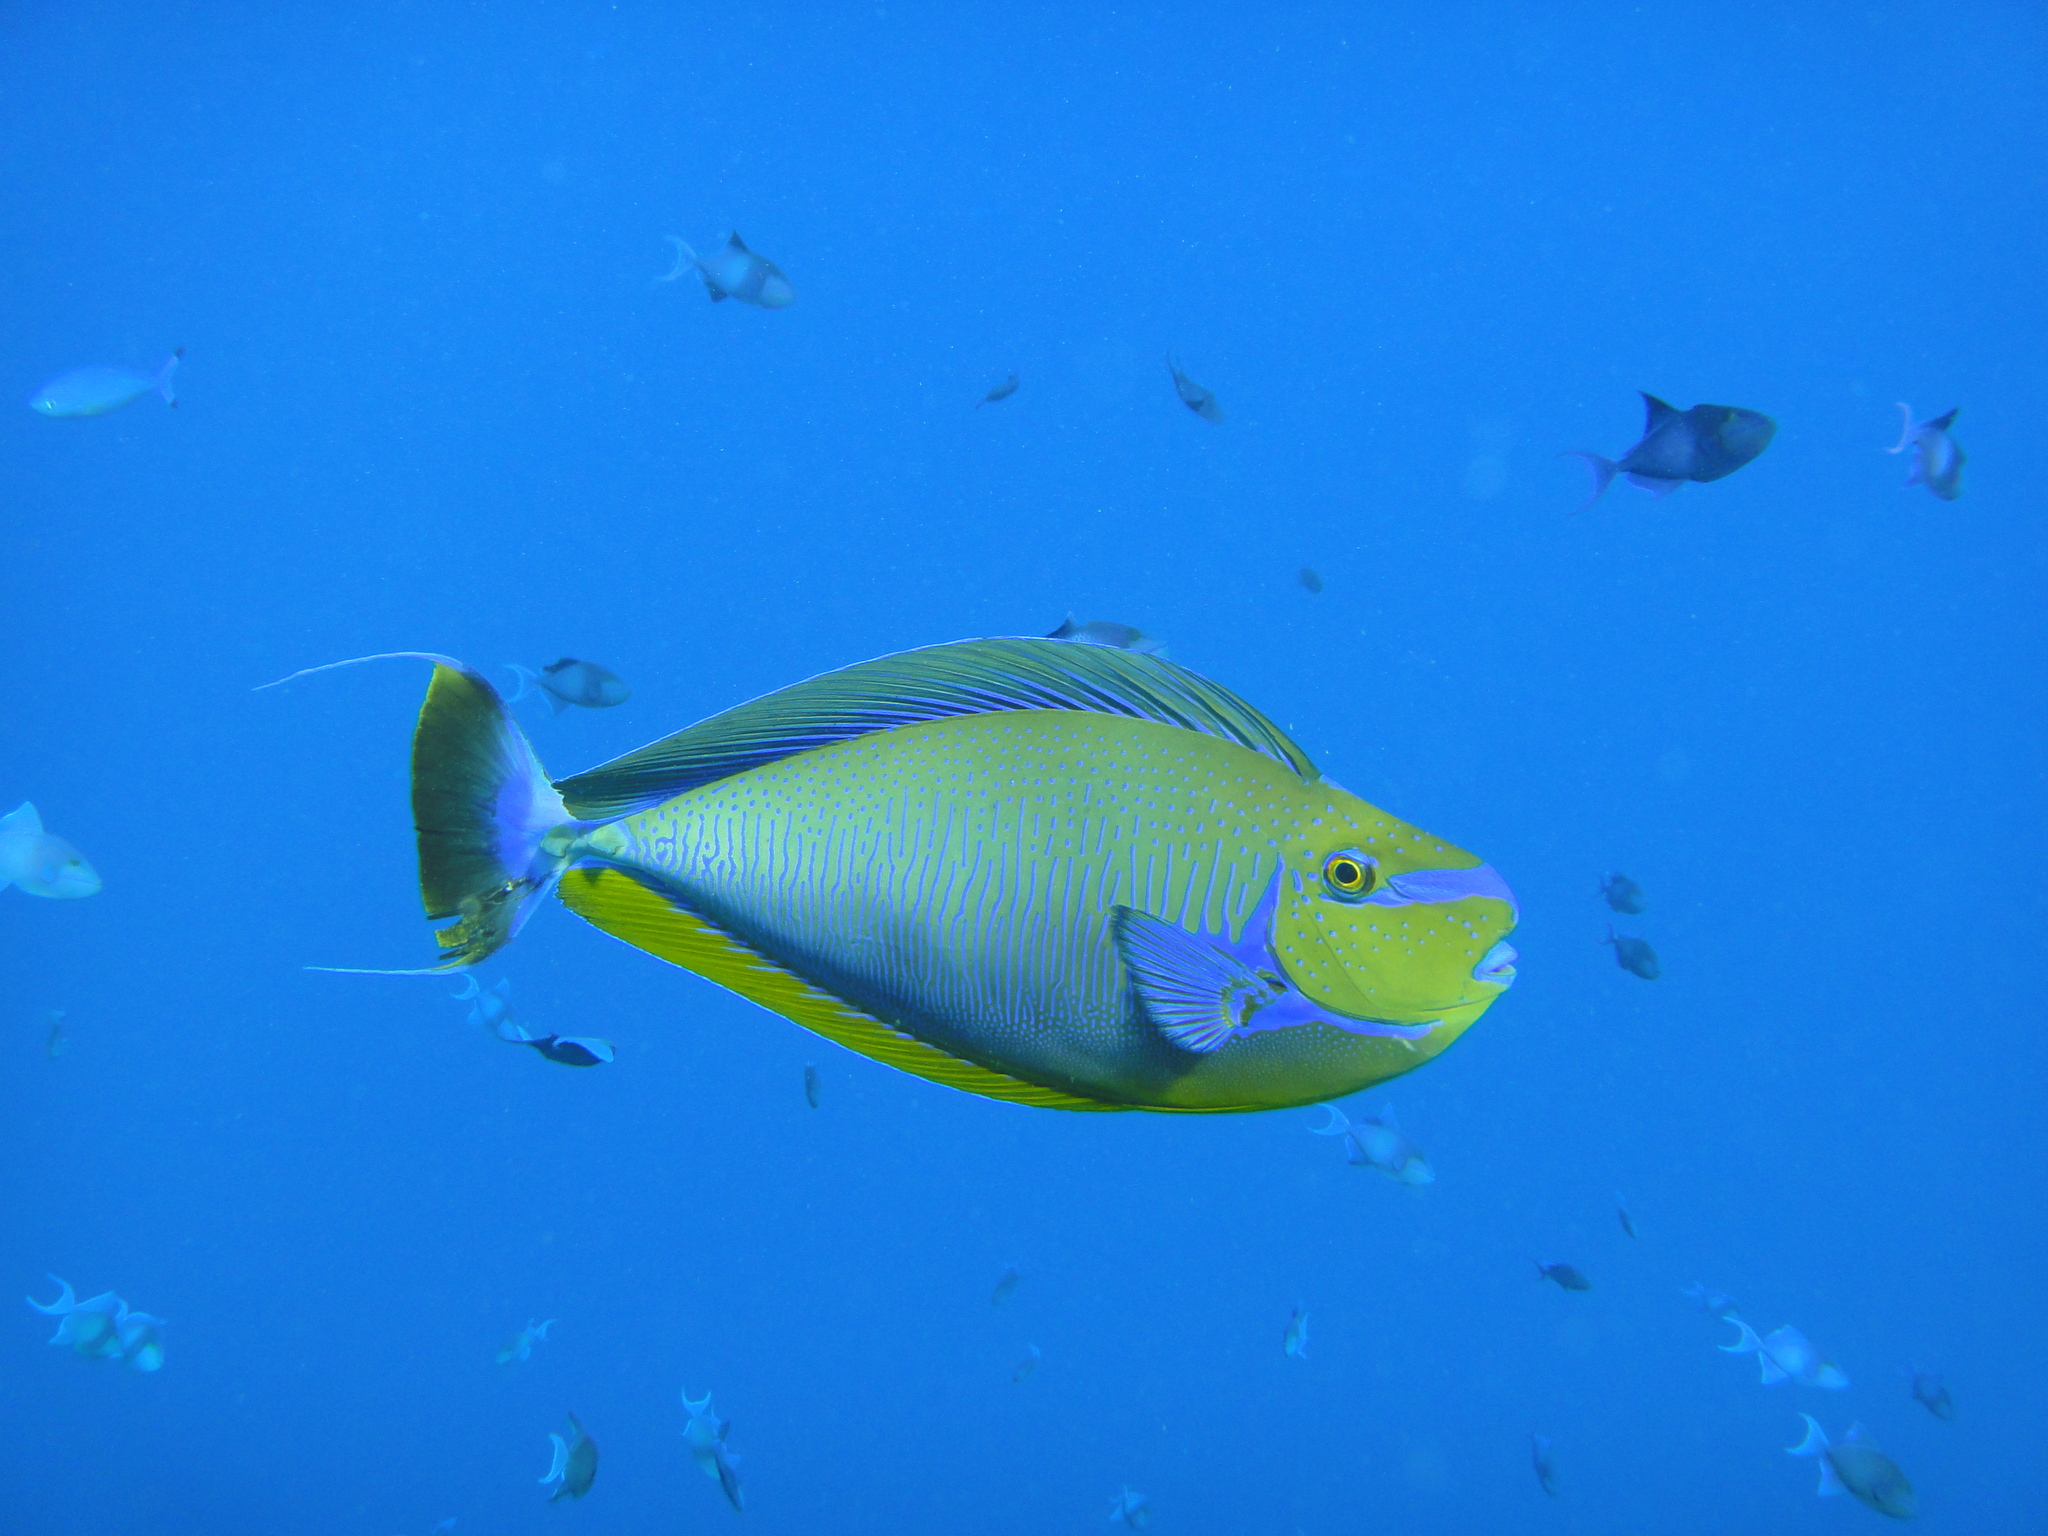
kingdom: Animalia
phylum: Chordata
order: Perciformes
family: Acanthuridae
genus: Naso
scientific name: Naso vlamingii
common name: Big-nose unicorn
